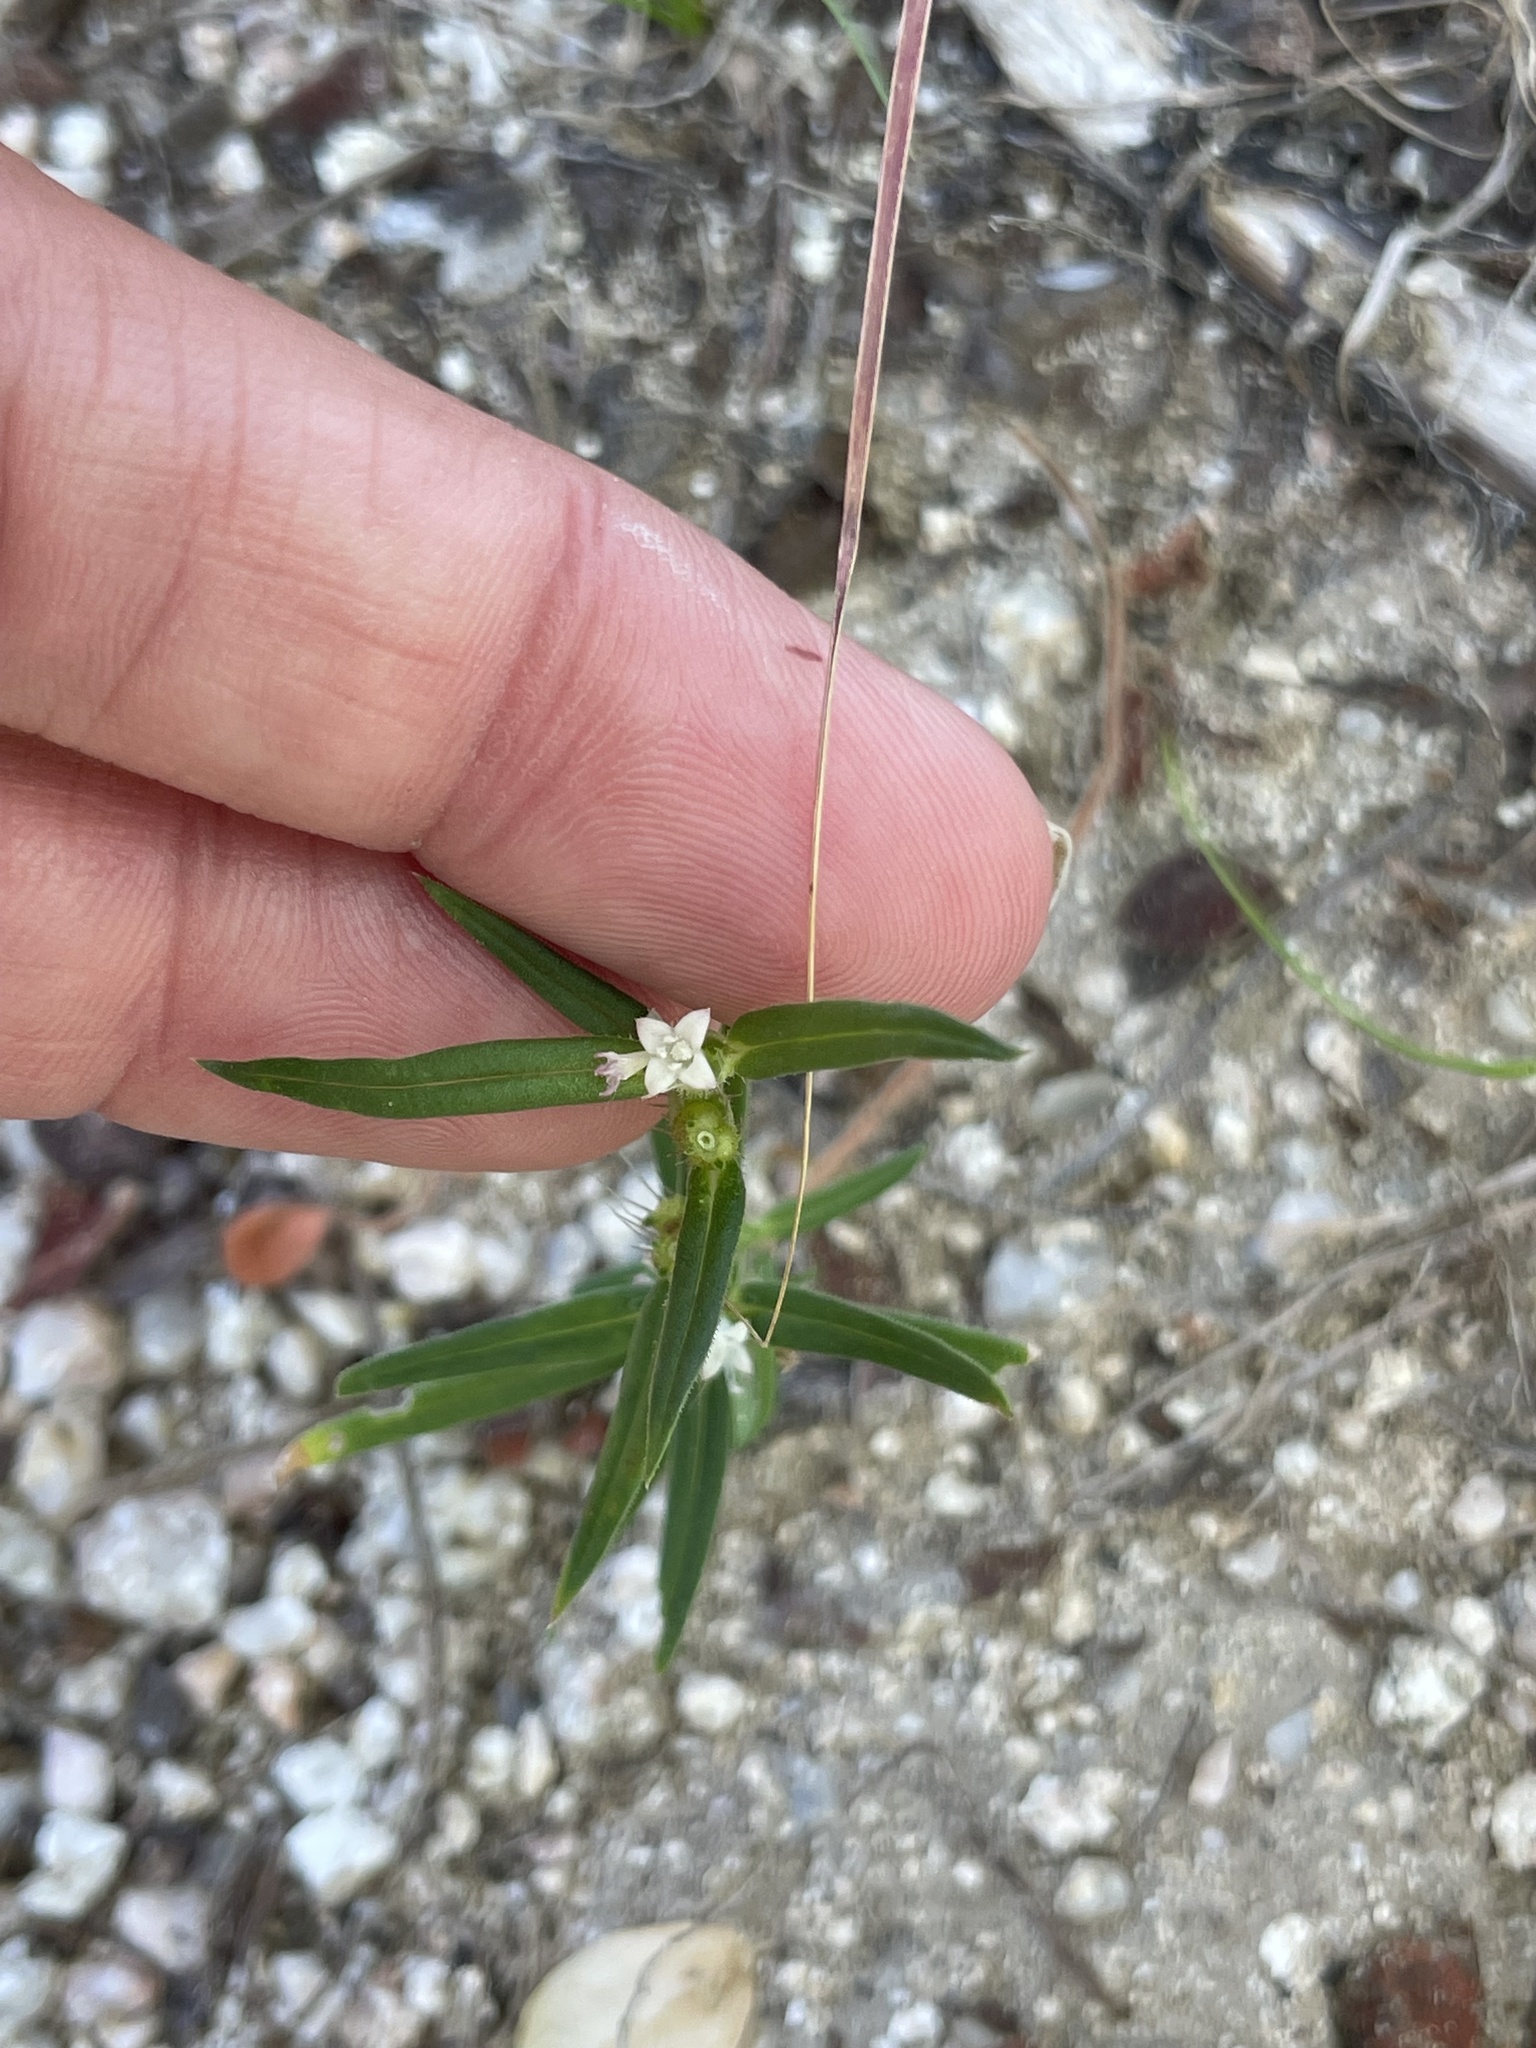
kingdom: Plantae
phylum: Tracheophyta
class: Magnoliopsida
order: Gentianales
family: Rubiaceae
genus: Hexasepalum
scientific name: Hexasepalum teres
